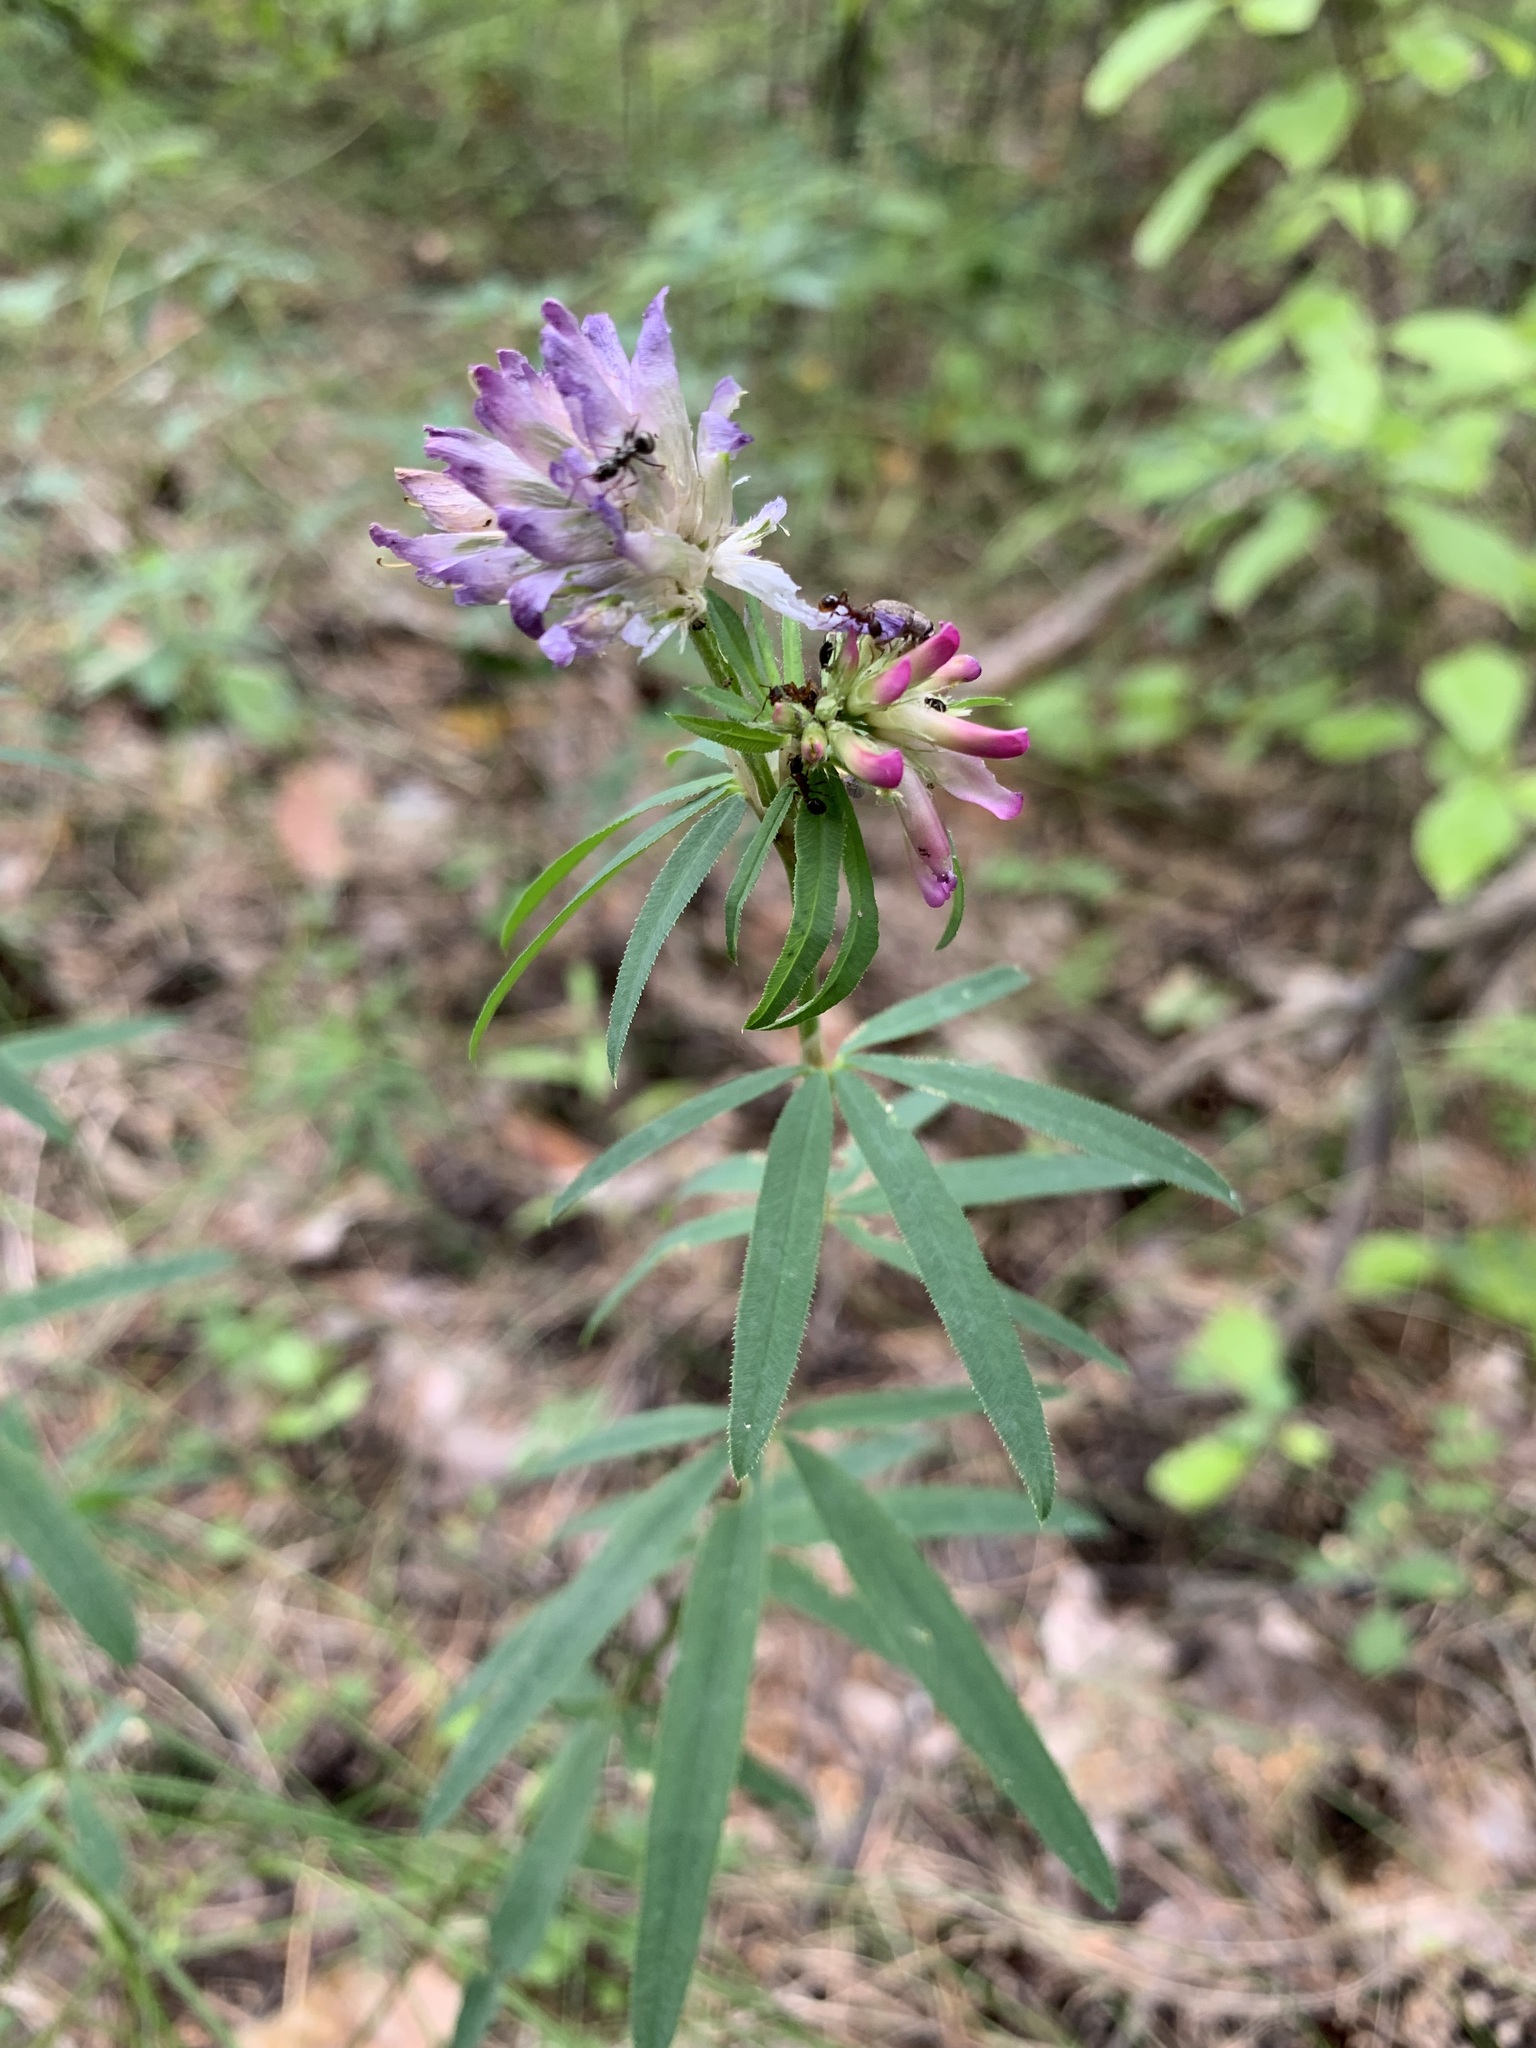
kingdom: Plantae
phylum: Tracheophyta
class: Magnoliopsida
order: Fabales
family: Fabaceae
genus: Trifolium
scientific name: Trifolium lupinaster
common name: Lupine clover
